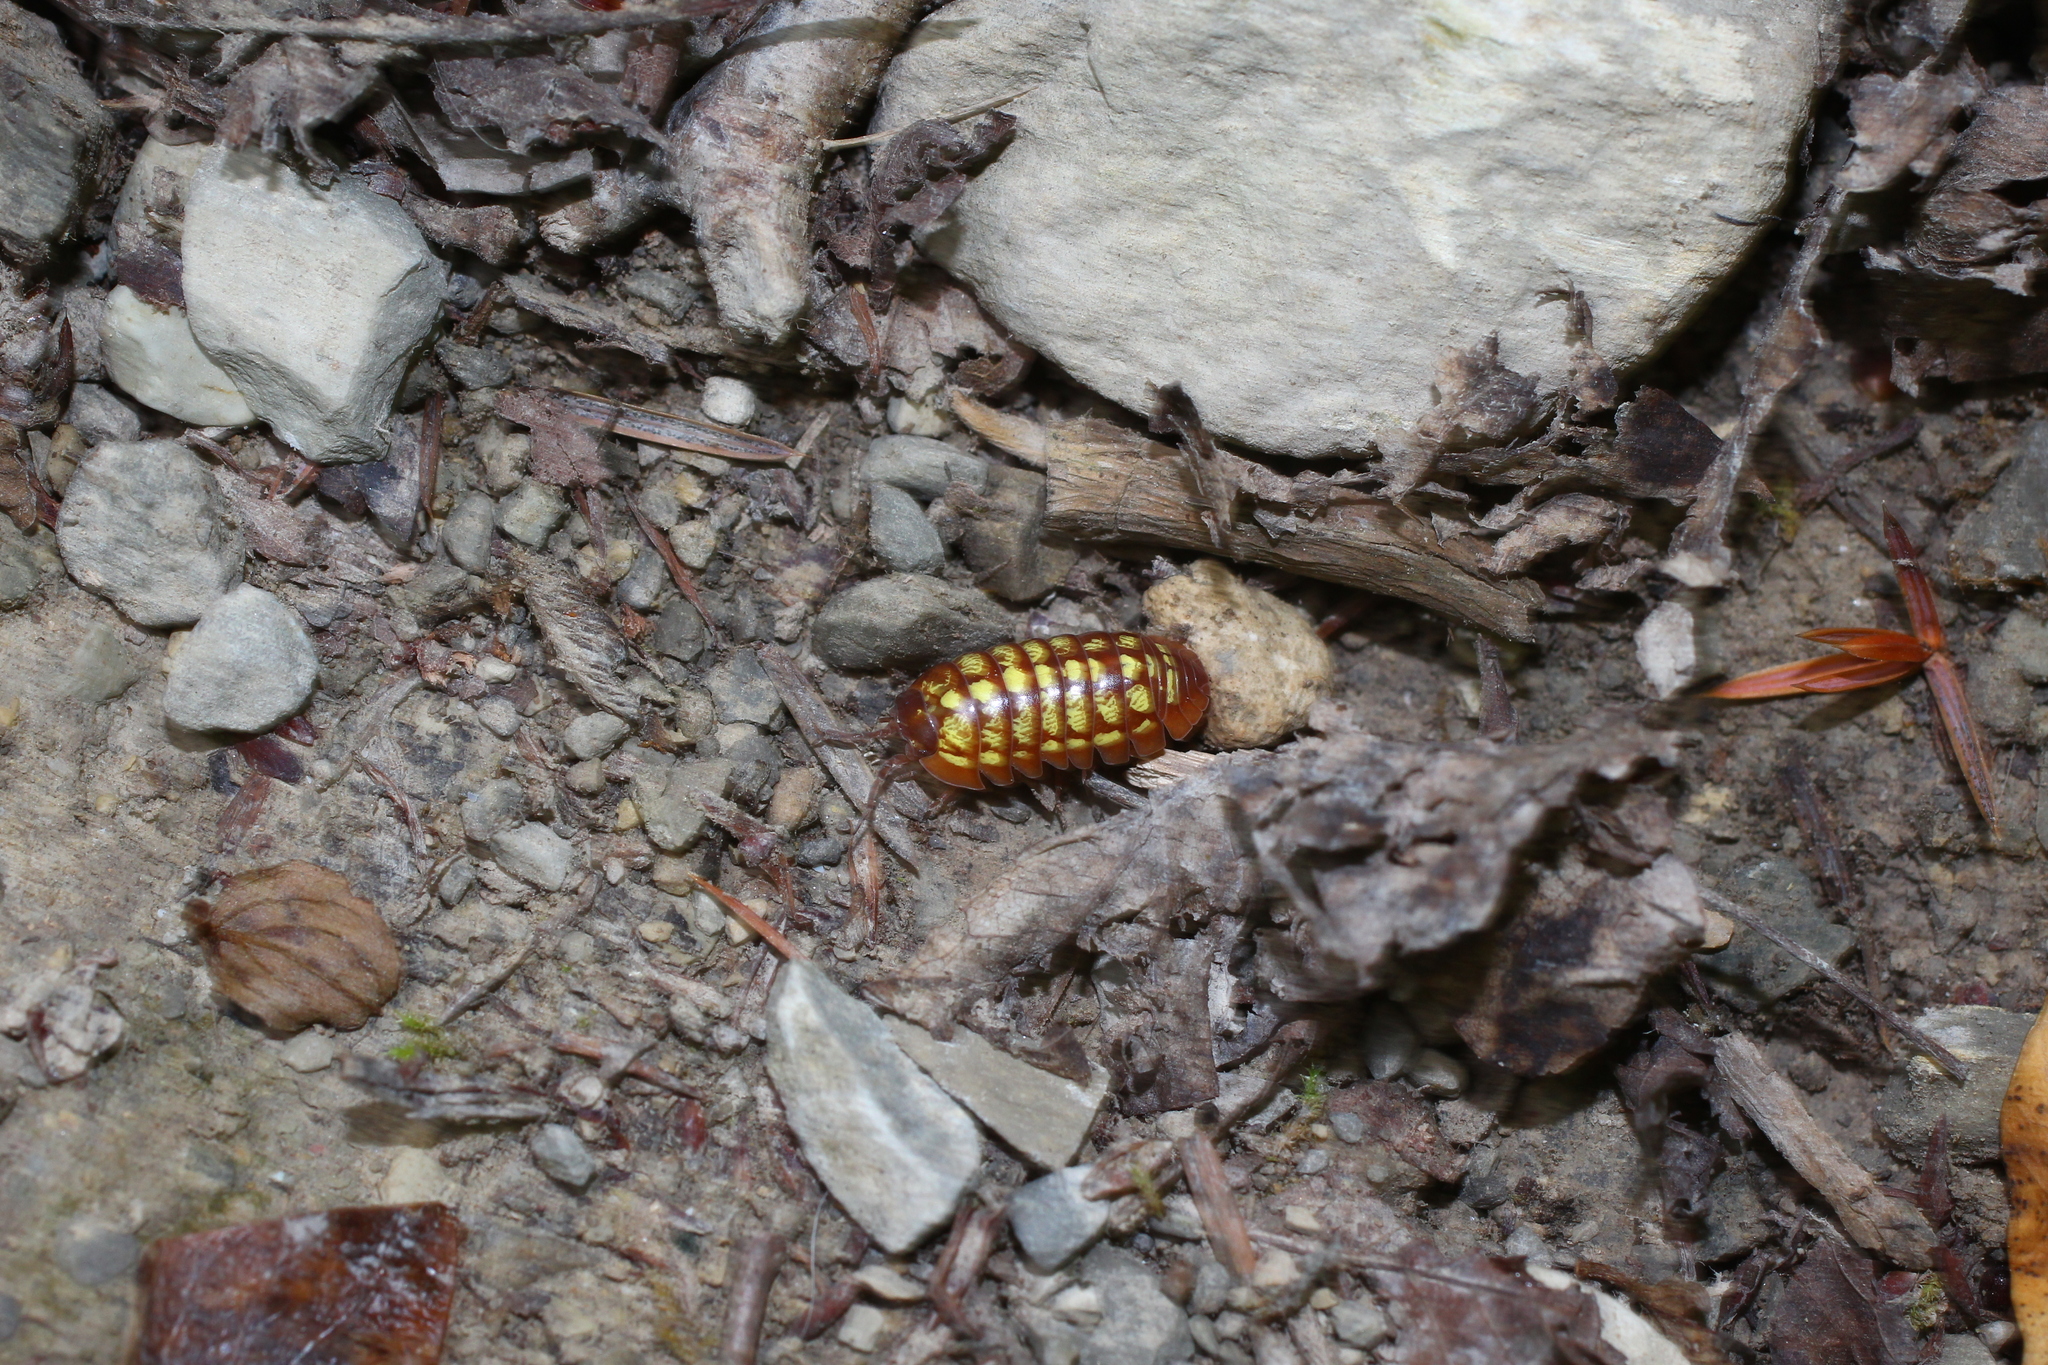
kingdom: Animalia
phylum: Arthropoda
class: Malacostraca
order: Isopoda
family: Armadillidiidae
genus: Armadillidium
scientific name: Armadillidium vulgare
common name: Common pill woodlouse
